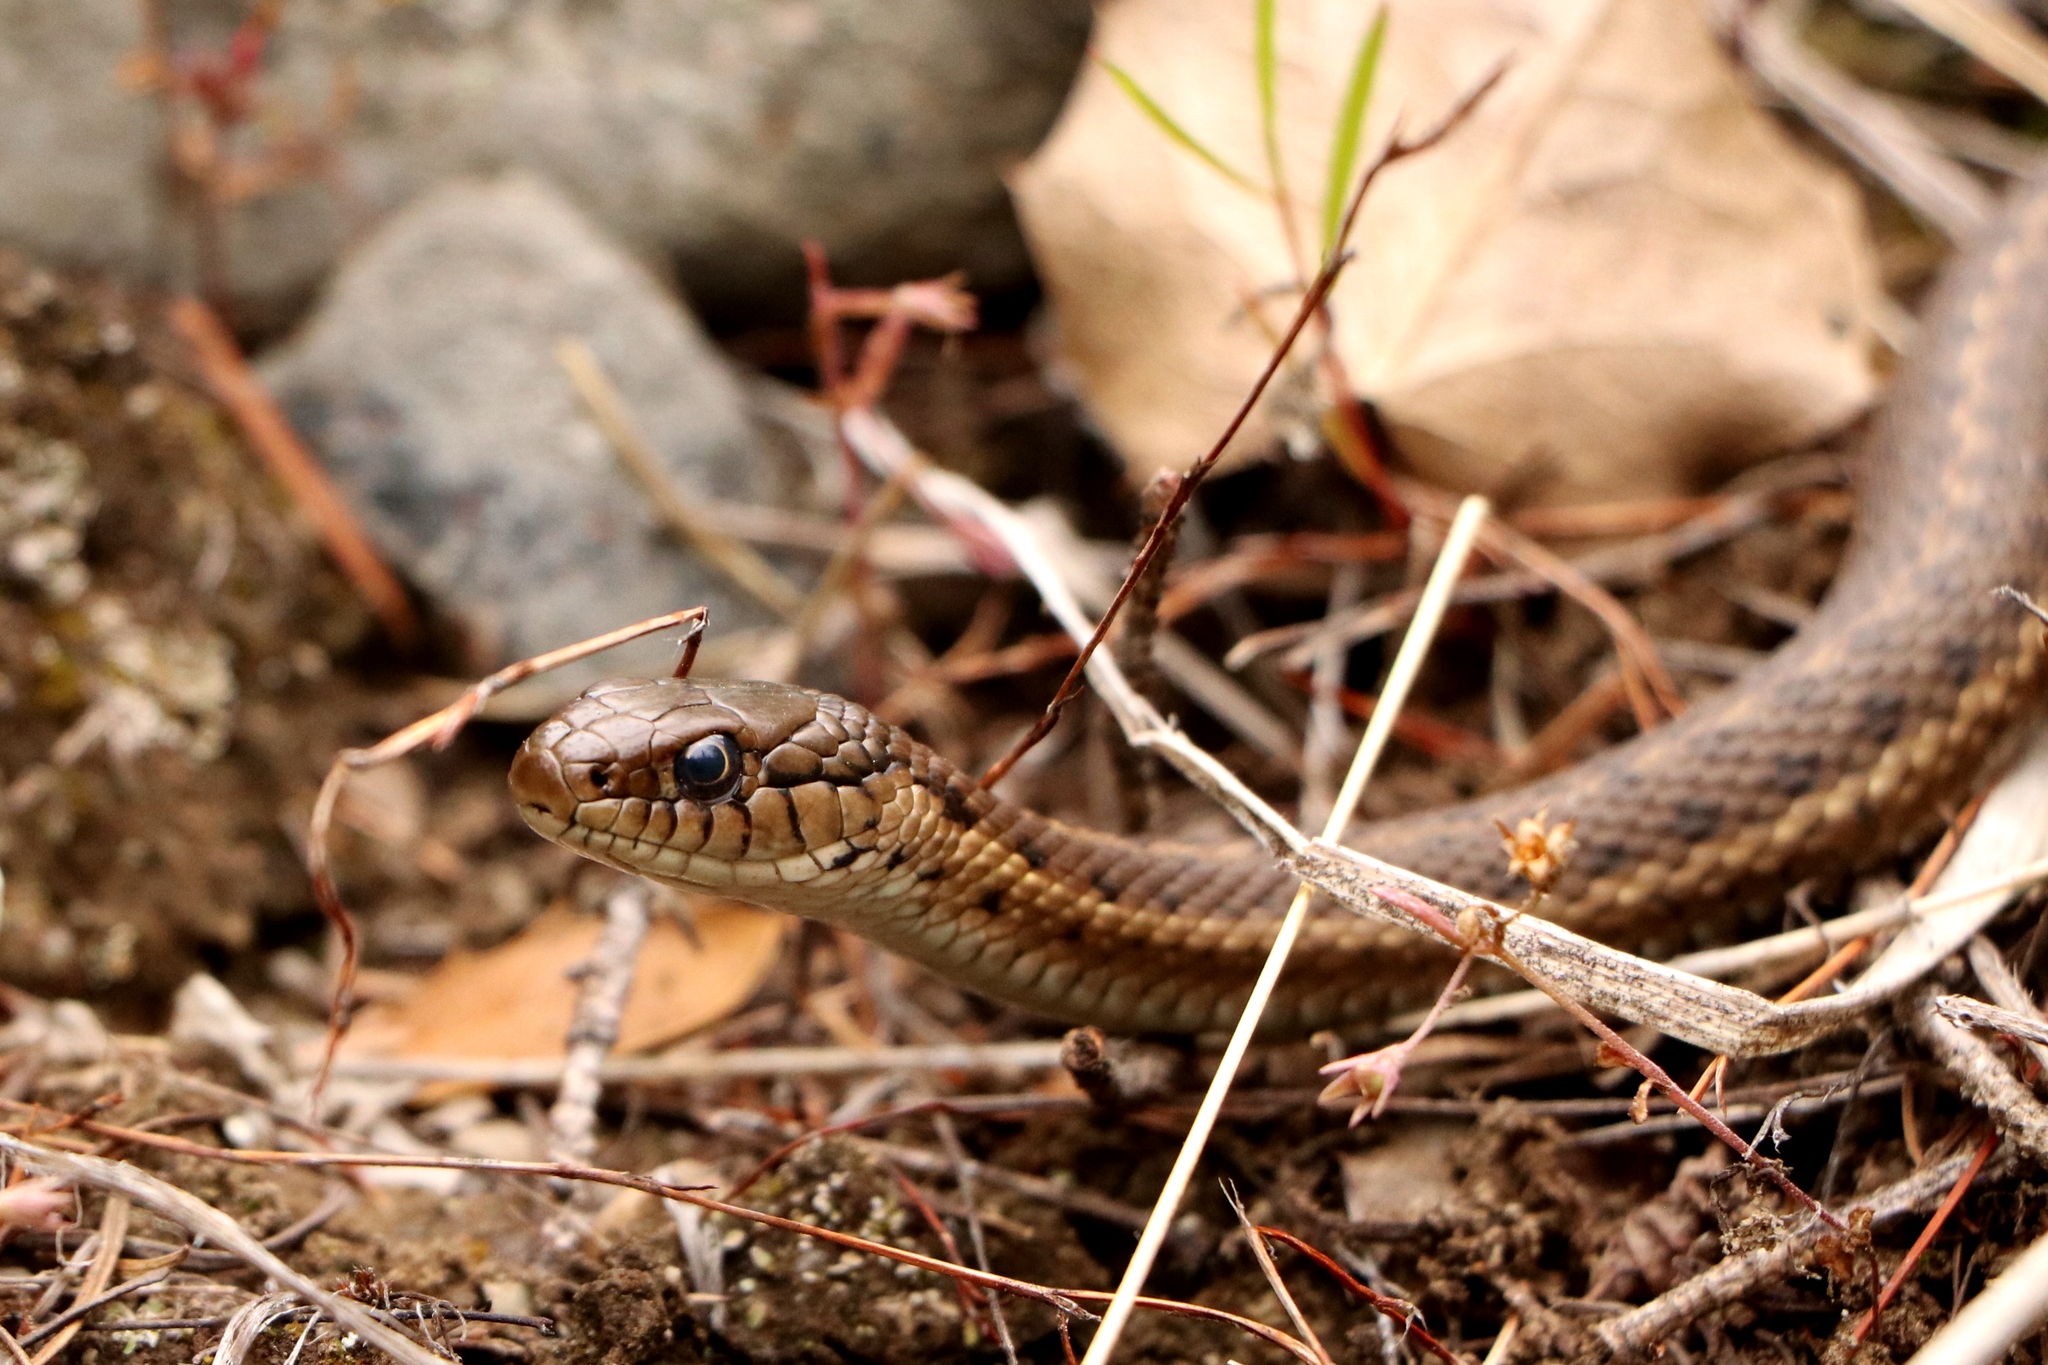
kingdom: Animalia
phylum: Chordata
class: Squamata
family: Colubridae
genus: Thamnophis
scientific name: Thamnophis elegans
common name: Western terrestrial garter snake
